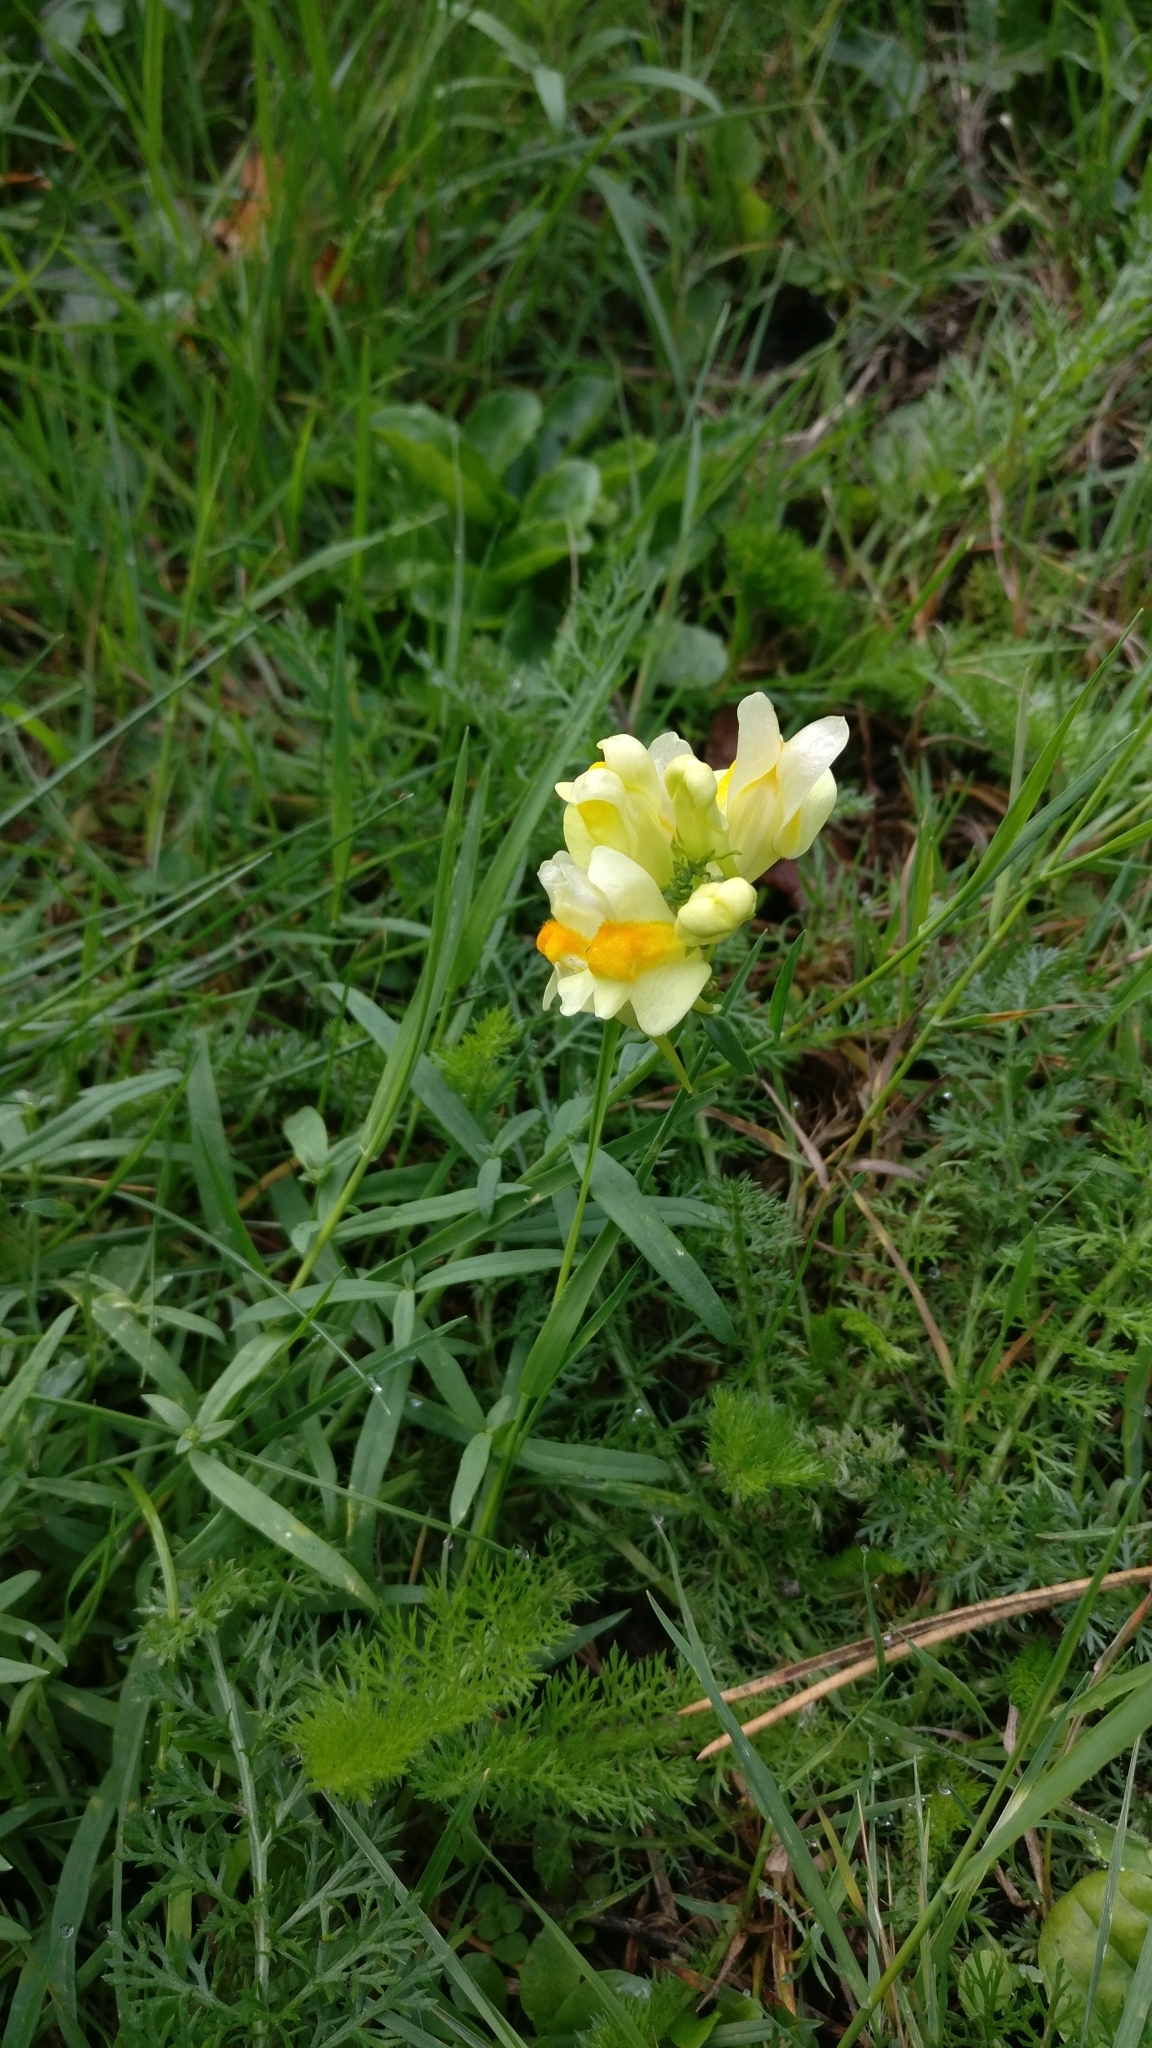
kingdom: Plantae
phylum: Tracheophyta
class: Magnoliopsida
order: Lamiales
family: Plantaginaceae
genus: Linaria
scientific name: Linaria vulgaris
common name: Butter and eggs
